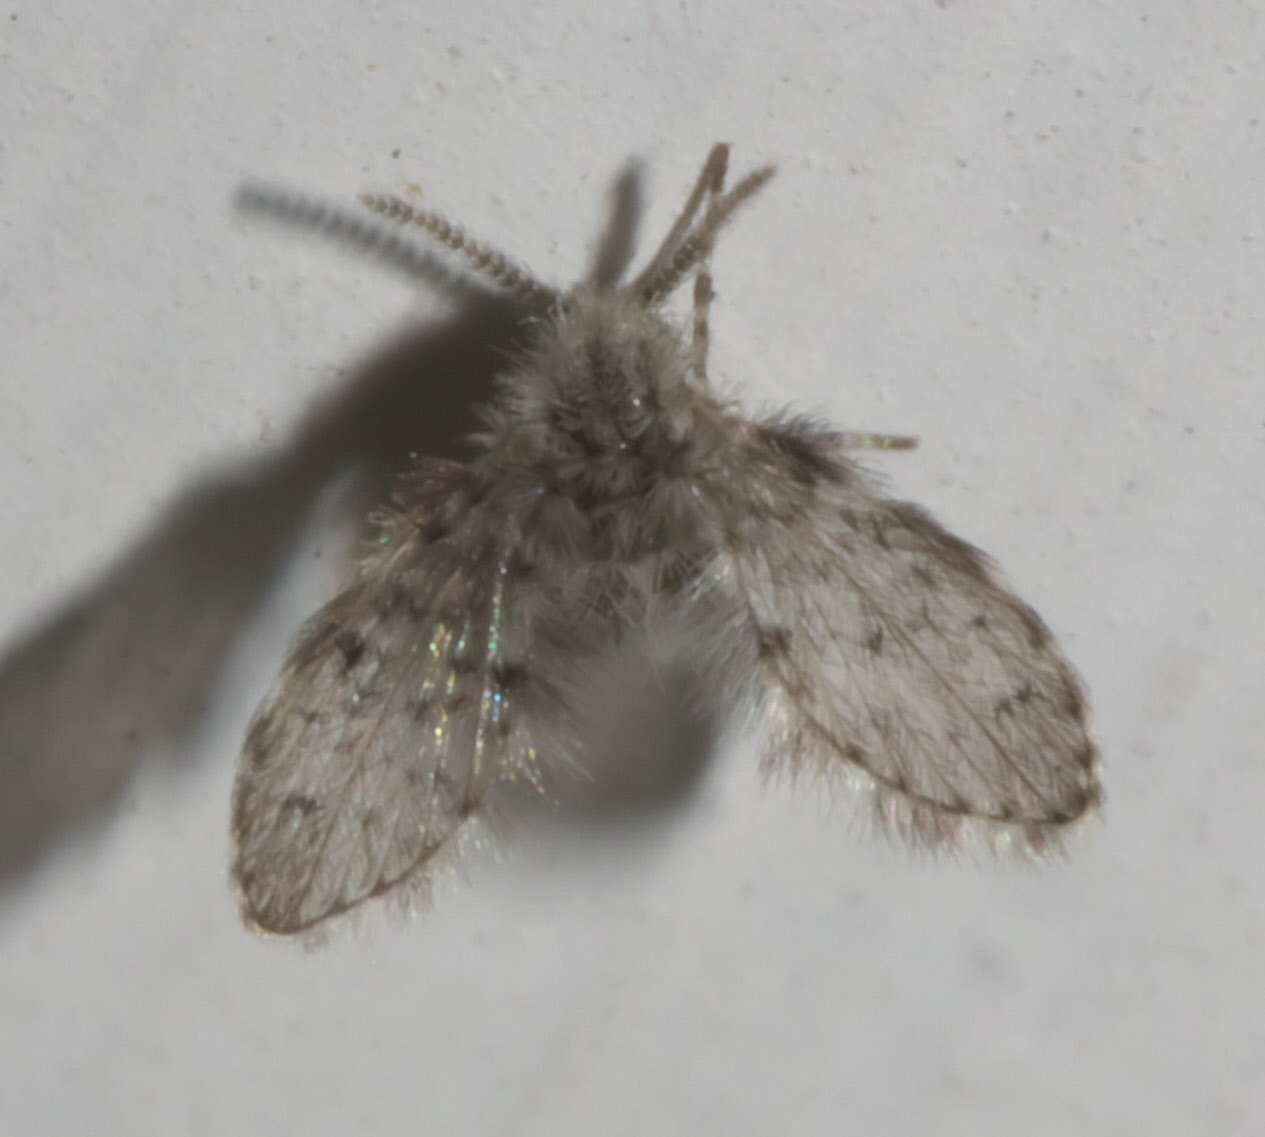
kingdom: Animalia
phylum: Arthropoda
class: Insecta
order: Diptera
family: Psychodidae
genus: Telmatoscopus
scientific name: Telmatoscopus furcatus
